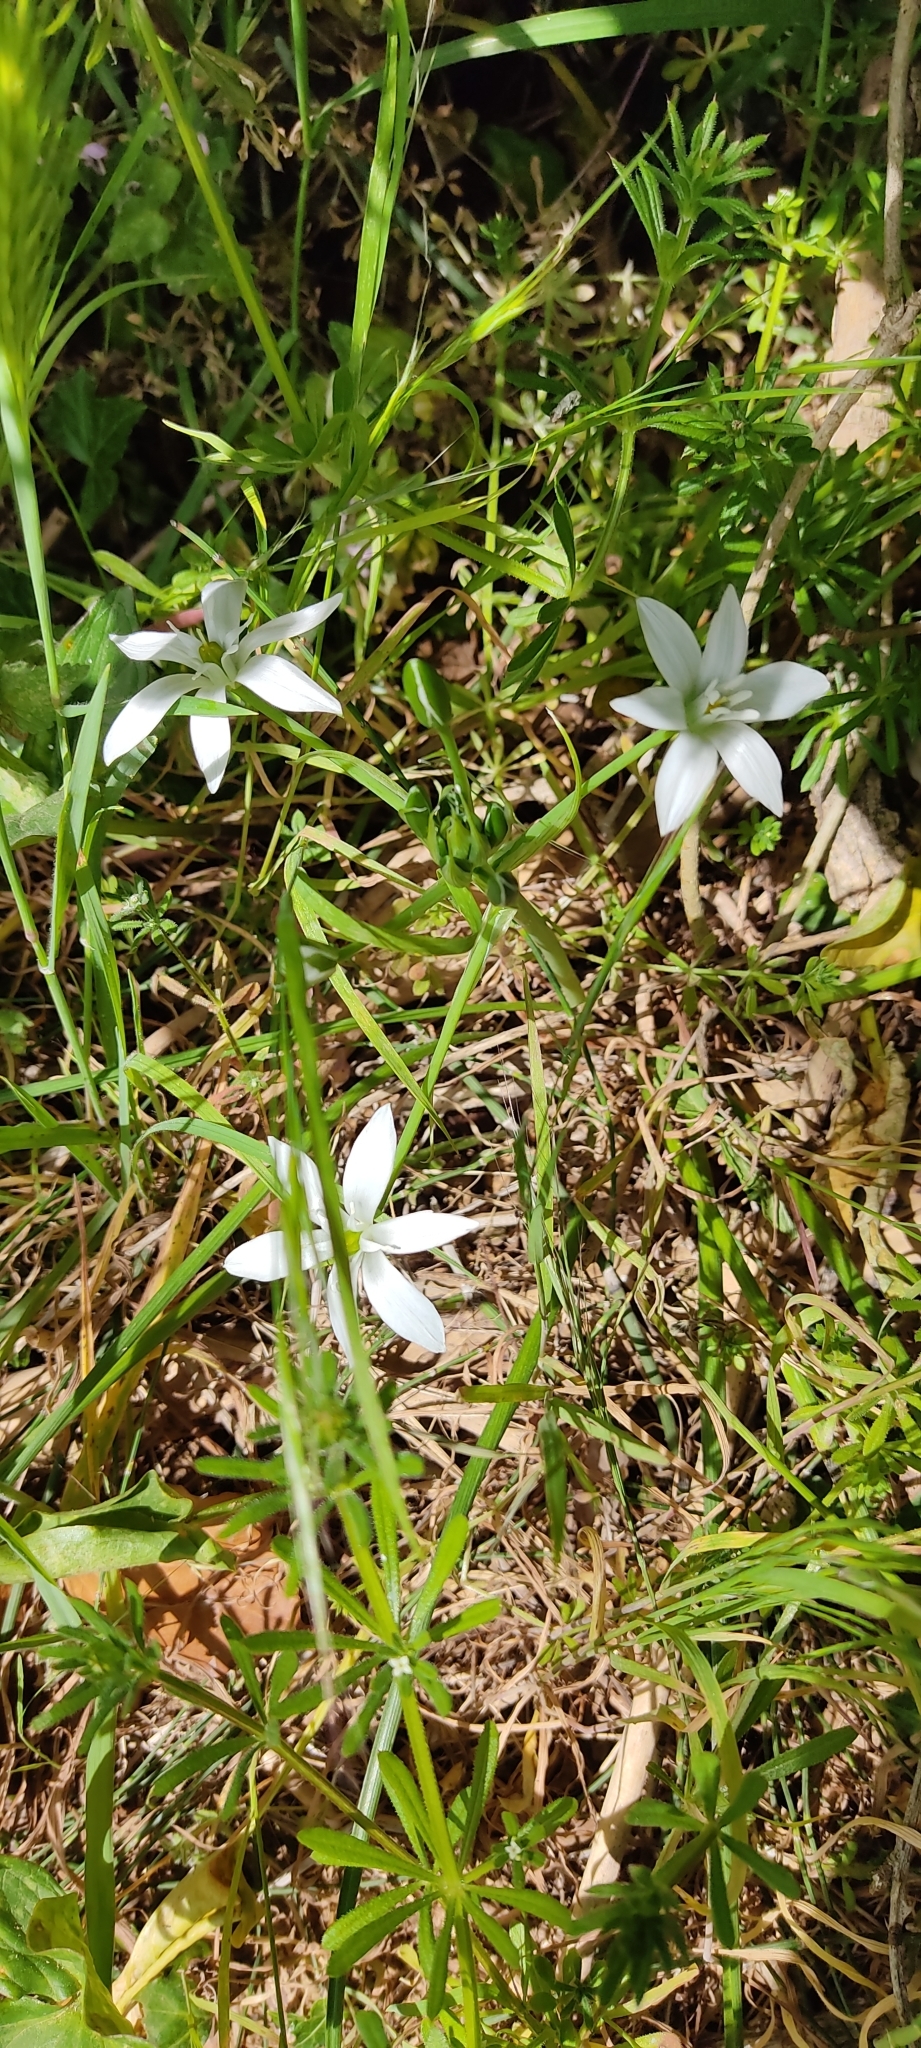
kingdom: Plantae
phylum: Tracheophyta
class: Liliopsida
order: Asparagales
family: Asparagaceae
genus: Ornithogalum
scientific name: Ornithogalum umbellatum
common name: Garden star-of-bethlehem
